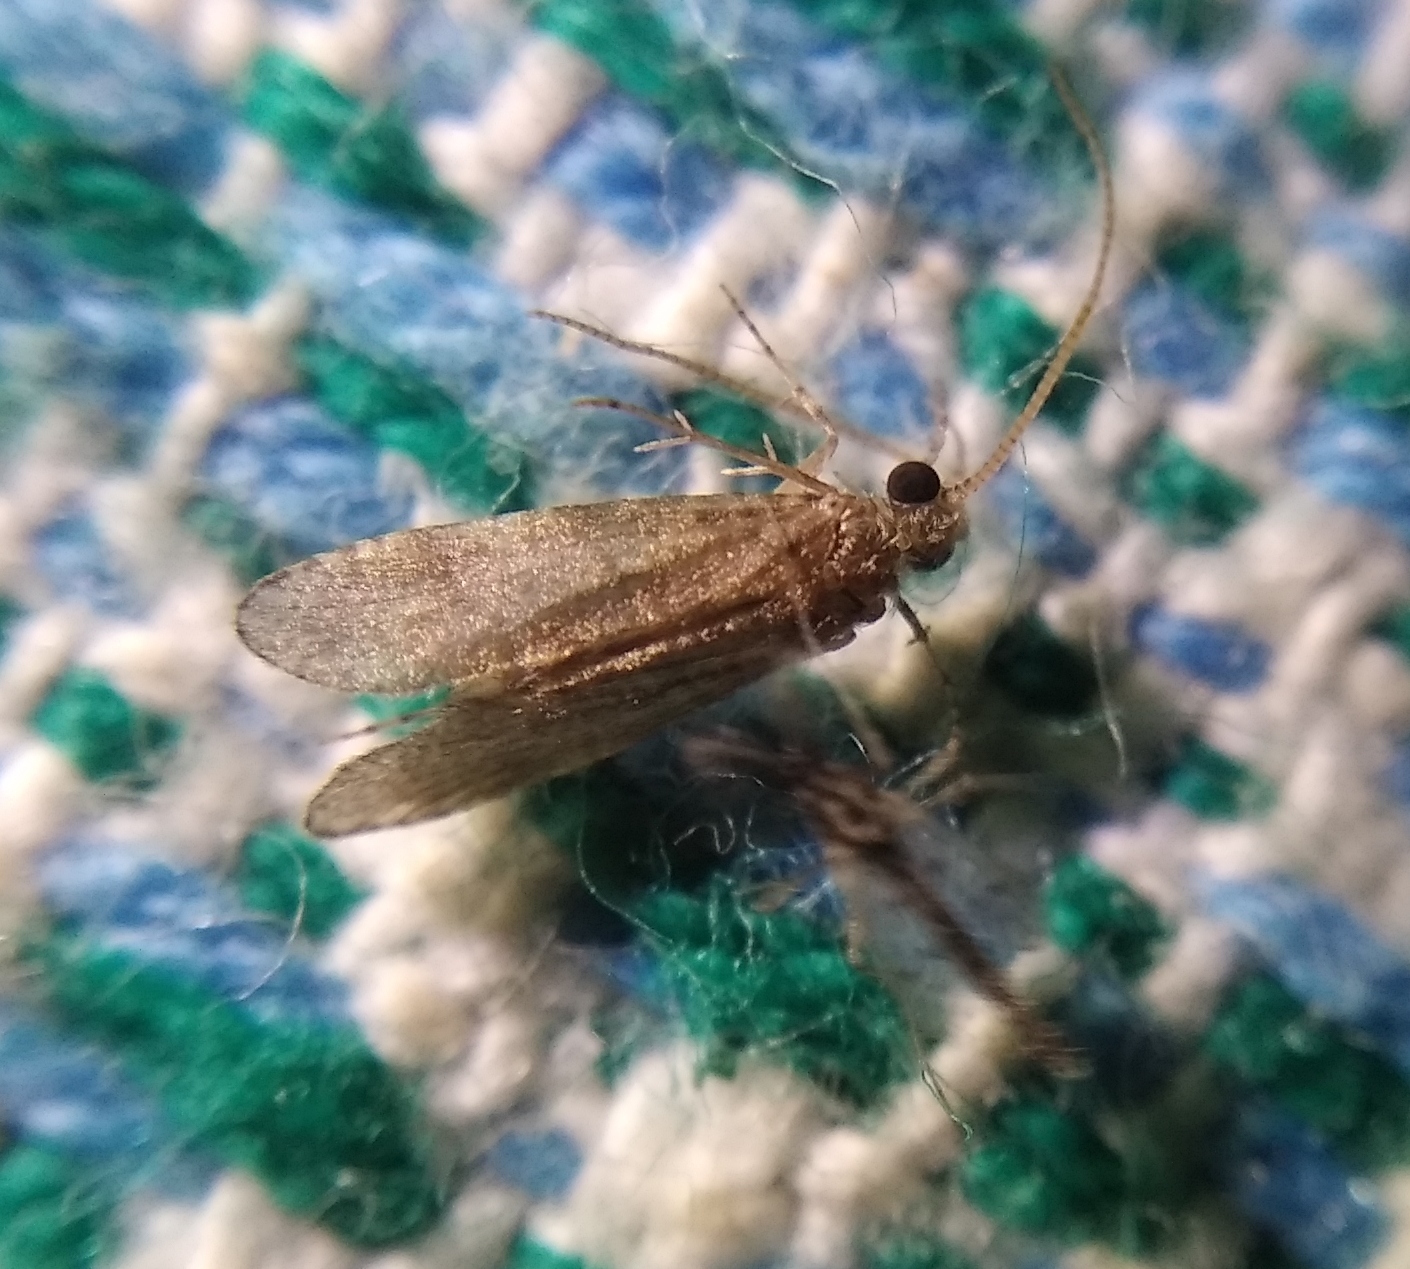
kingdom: Animalia
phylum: Arthropoda
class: Insecta
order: Trichoptera
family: Ecnomidae
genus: Ecnomus
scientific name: Ecnomus tenellus
